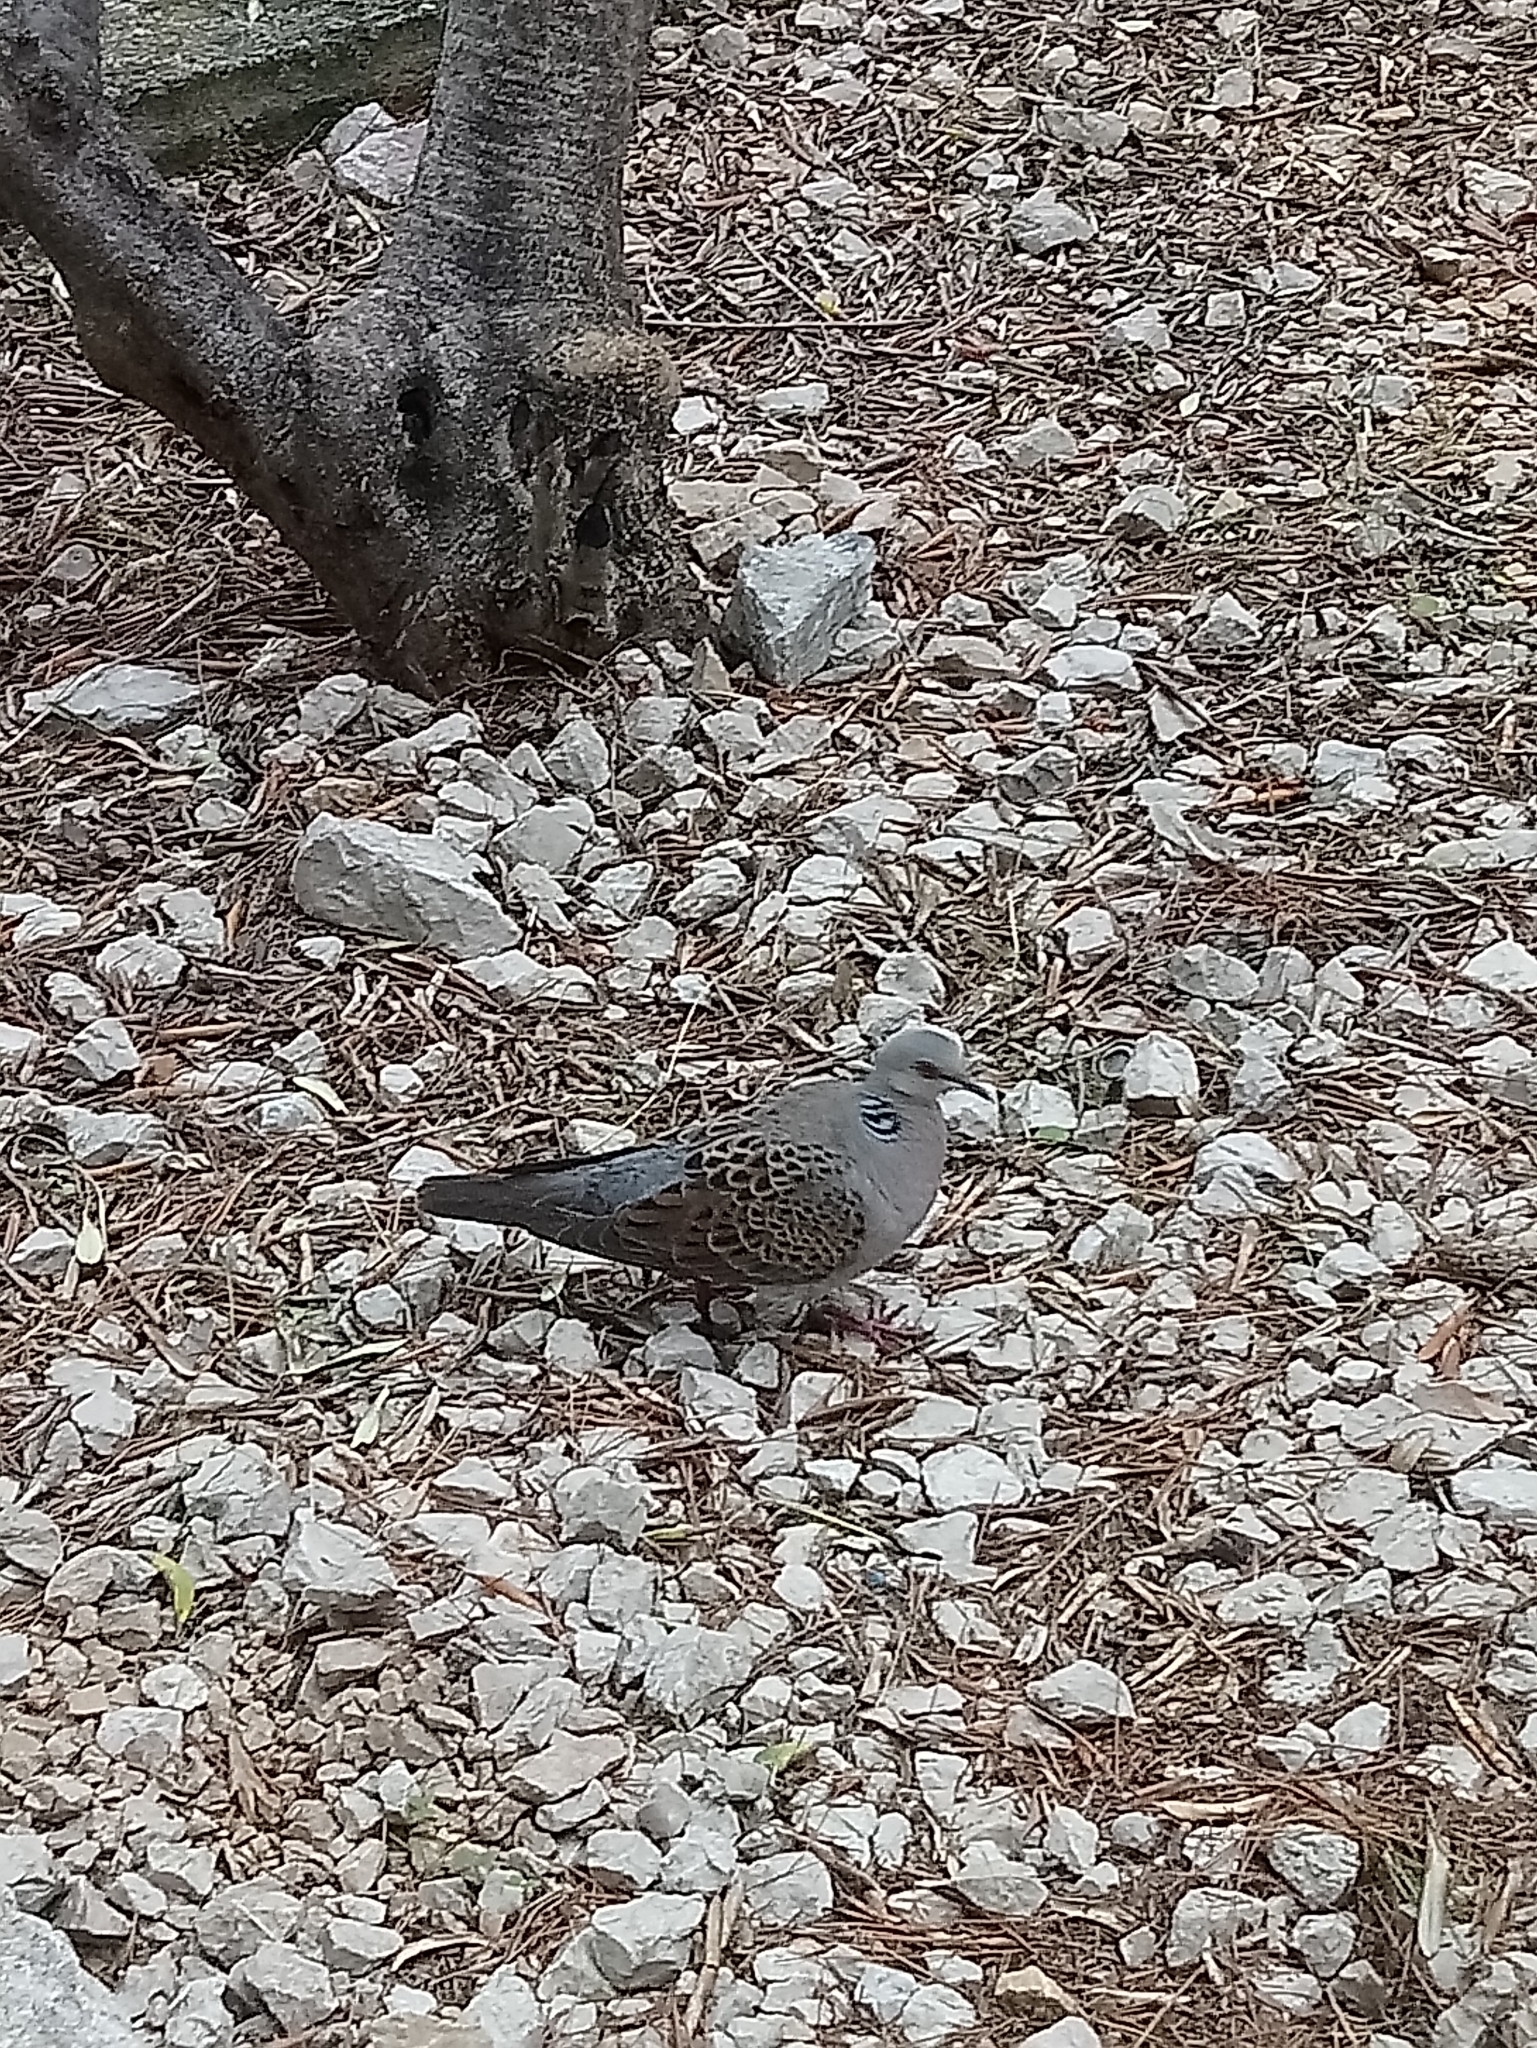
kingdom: Animalia
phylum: Chordata
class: Aves
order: Columbiformes
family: Columbidae
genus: Streptopelia
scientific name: Streptopelia turtur
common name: European turtle dove
